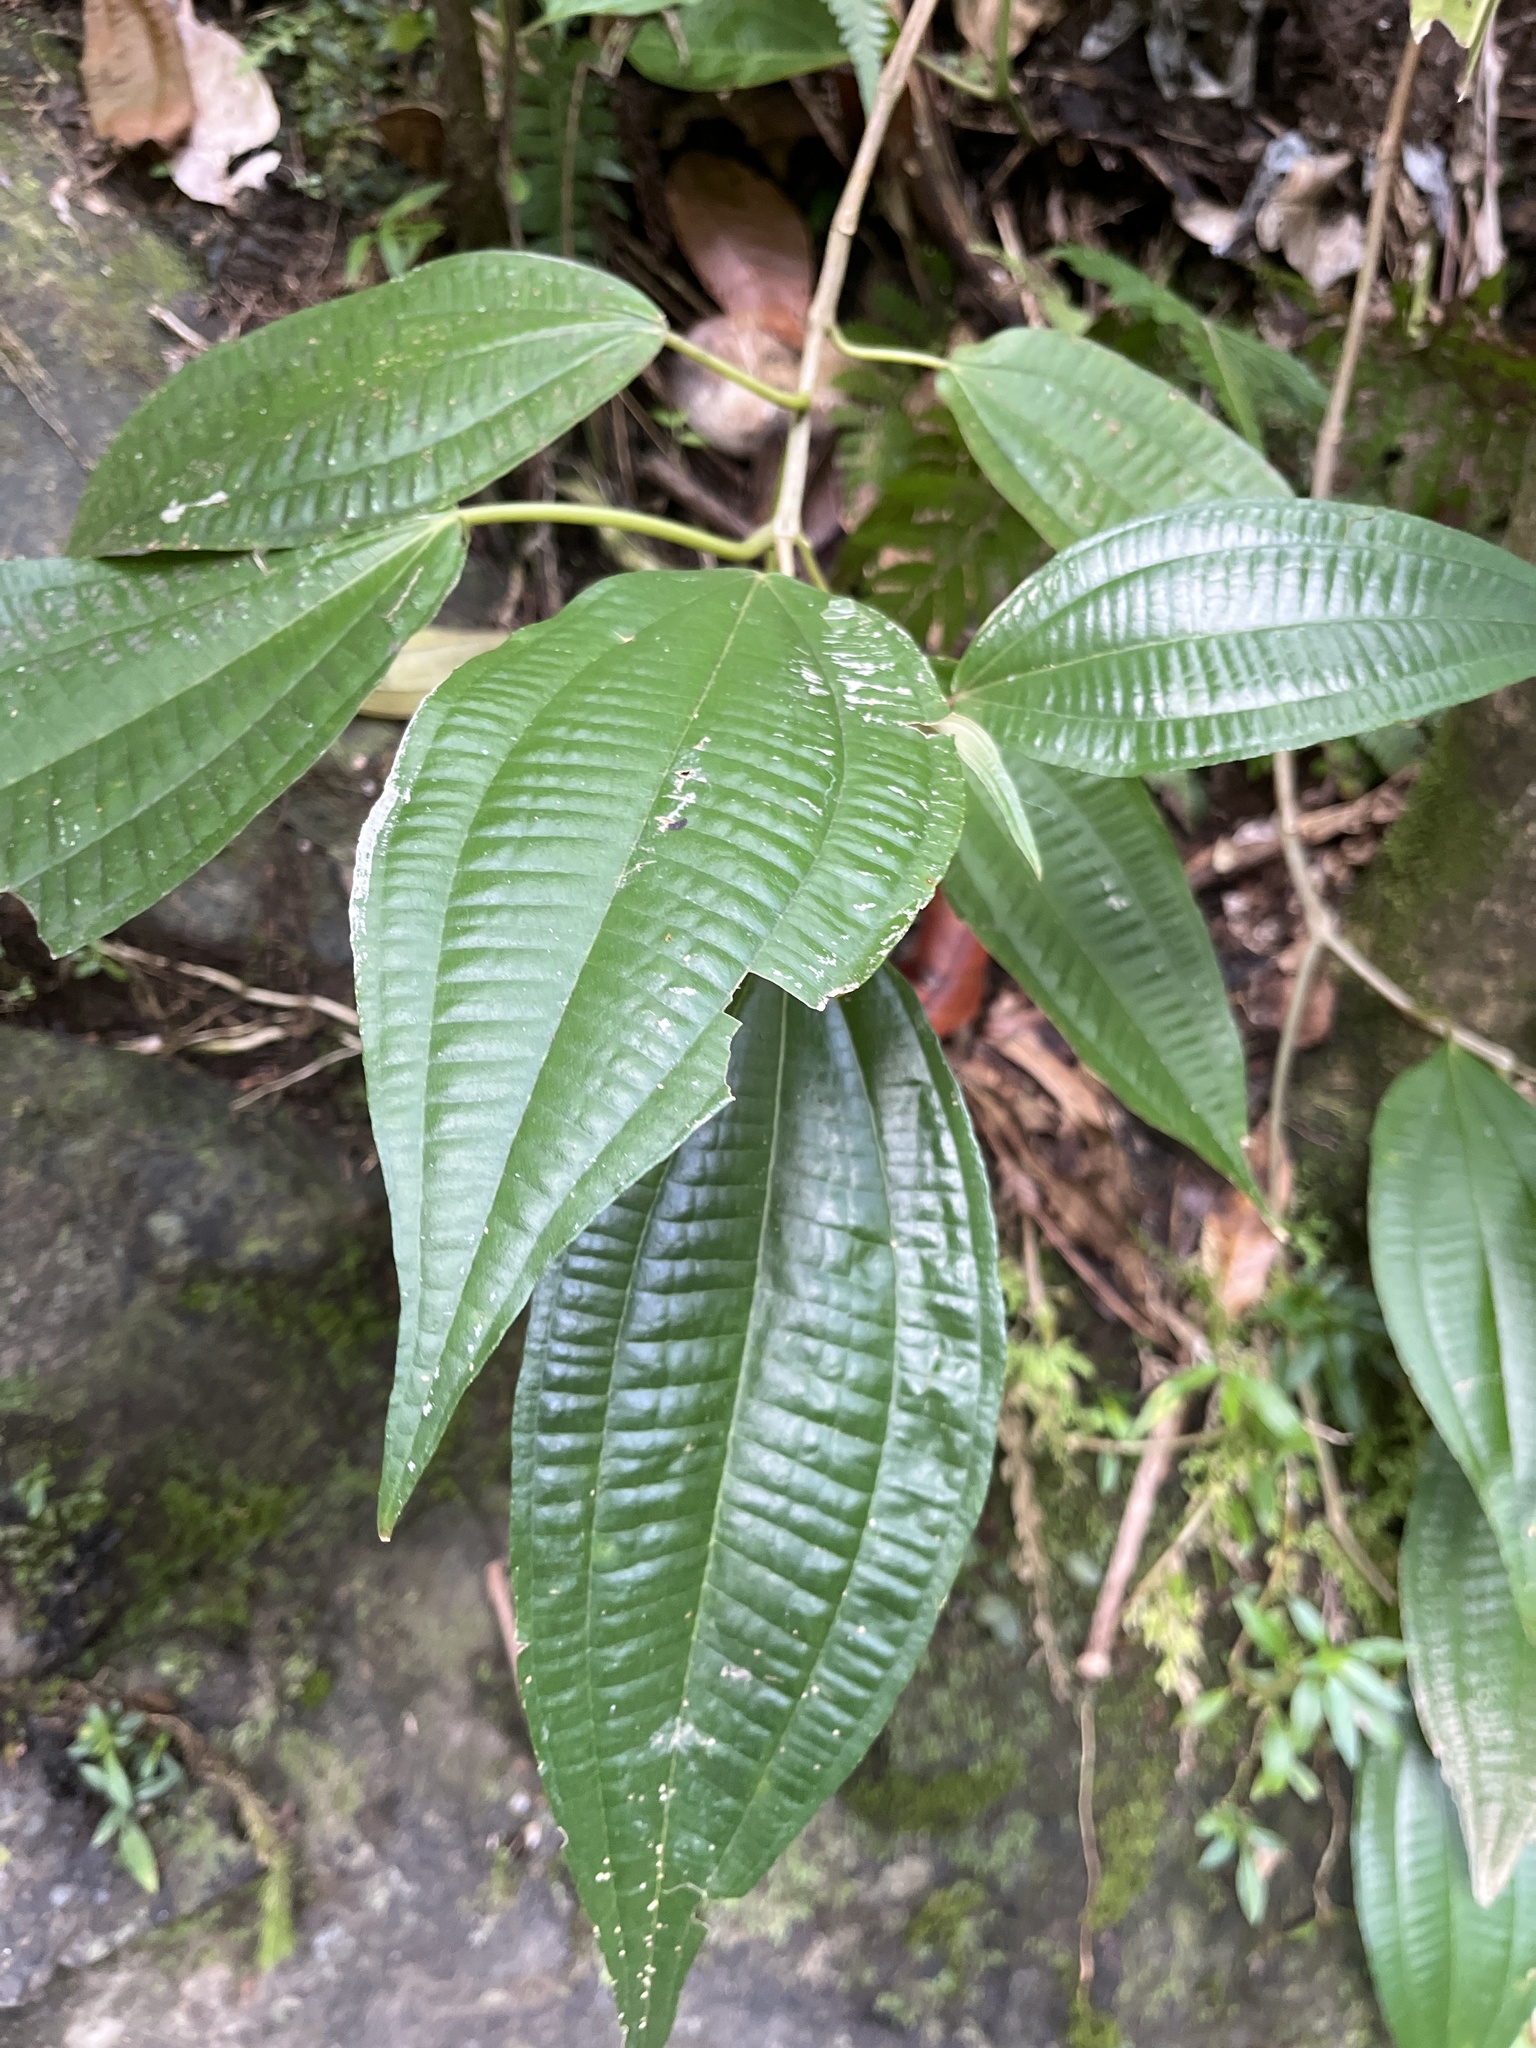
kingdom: Plantae
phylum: Tracheophyta
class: Magnoliopsida
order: Myrtales
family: Melastomataceae
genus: Miconia
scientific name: Miconia laevigata
